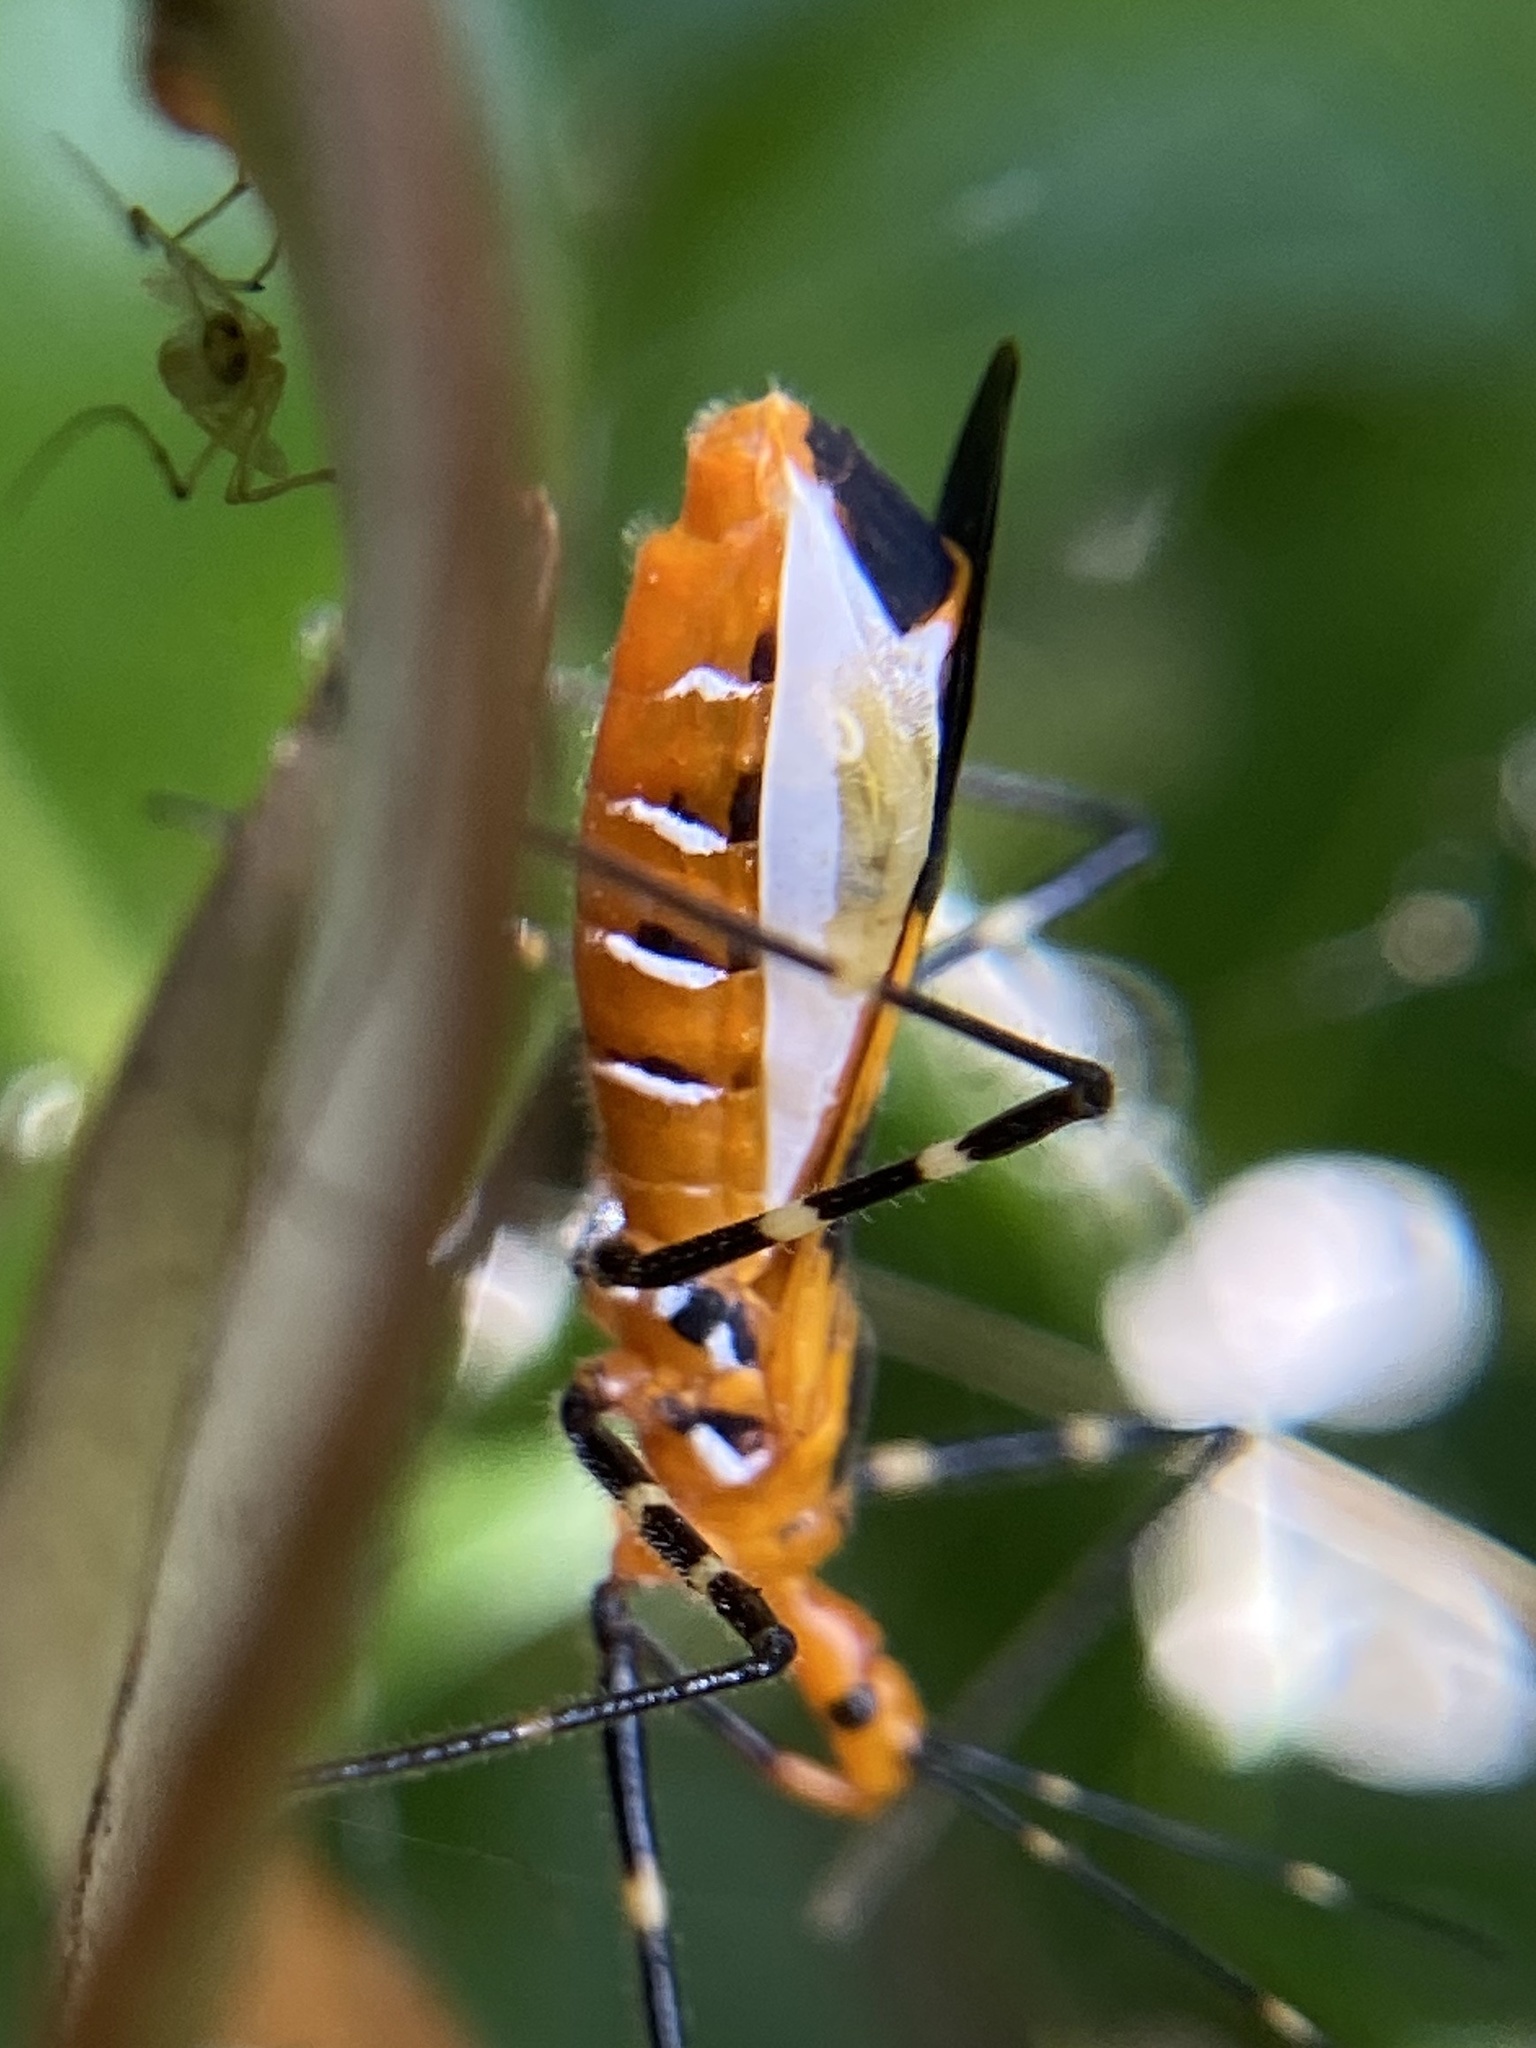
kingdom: Animalia
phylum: Arthropoda
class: Insecta
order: Hemiptera
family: Reduviidae
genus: Zelus
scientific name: Zelus longipes
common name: Milkweed assassin bug
